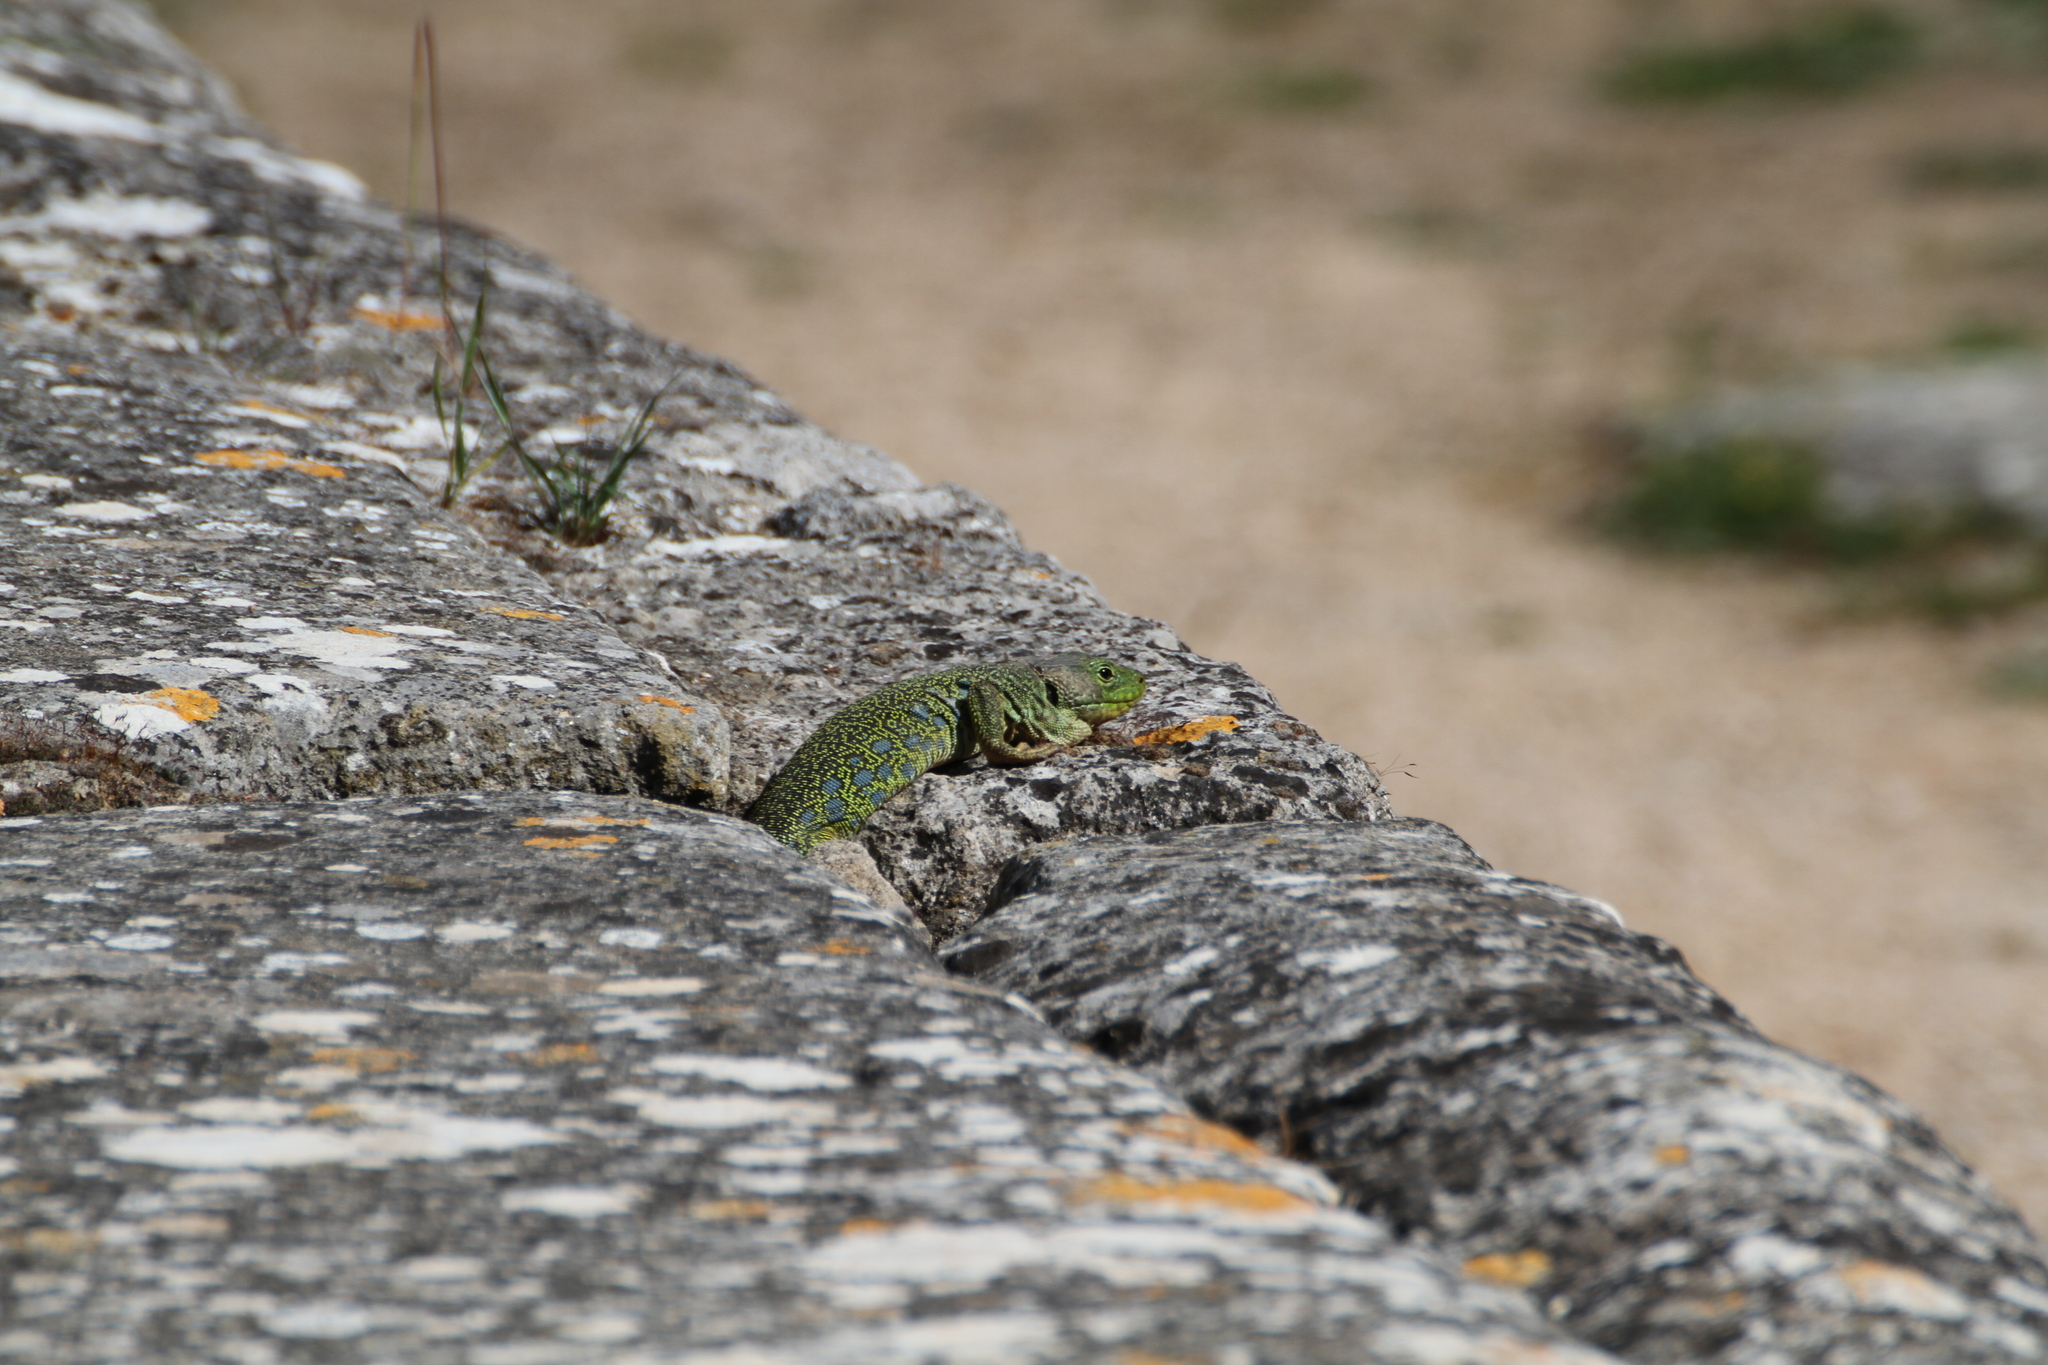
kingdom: Animalia
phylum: Chordata
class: Squamata
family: Lacertidae
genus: Timon
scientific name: Timon lepidus
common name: Ocellated lizard
